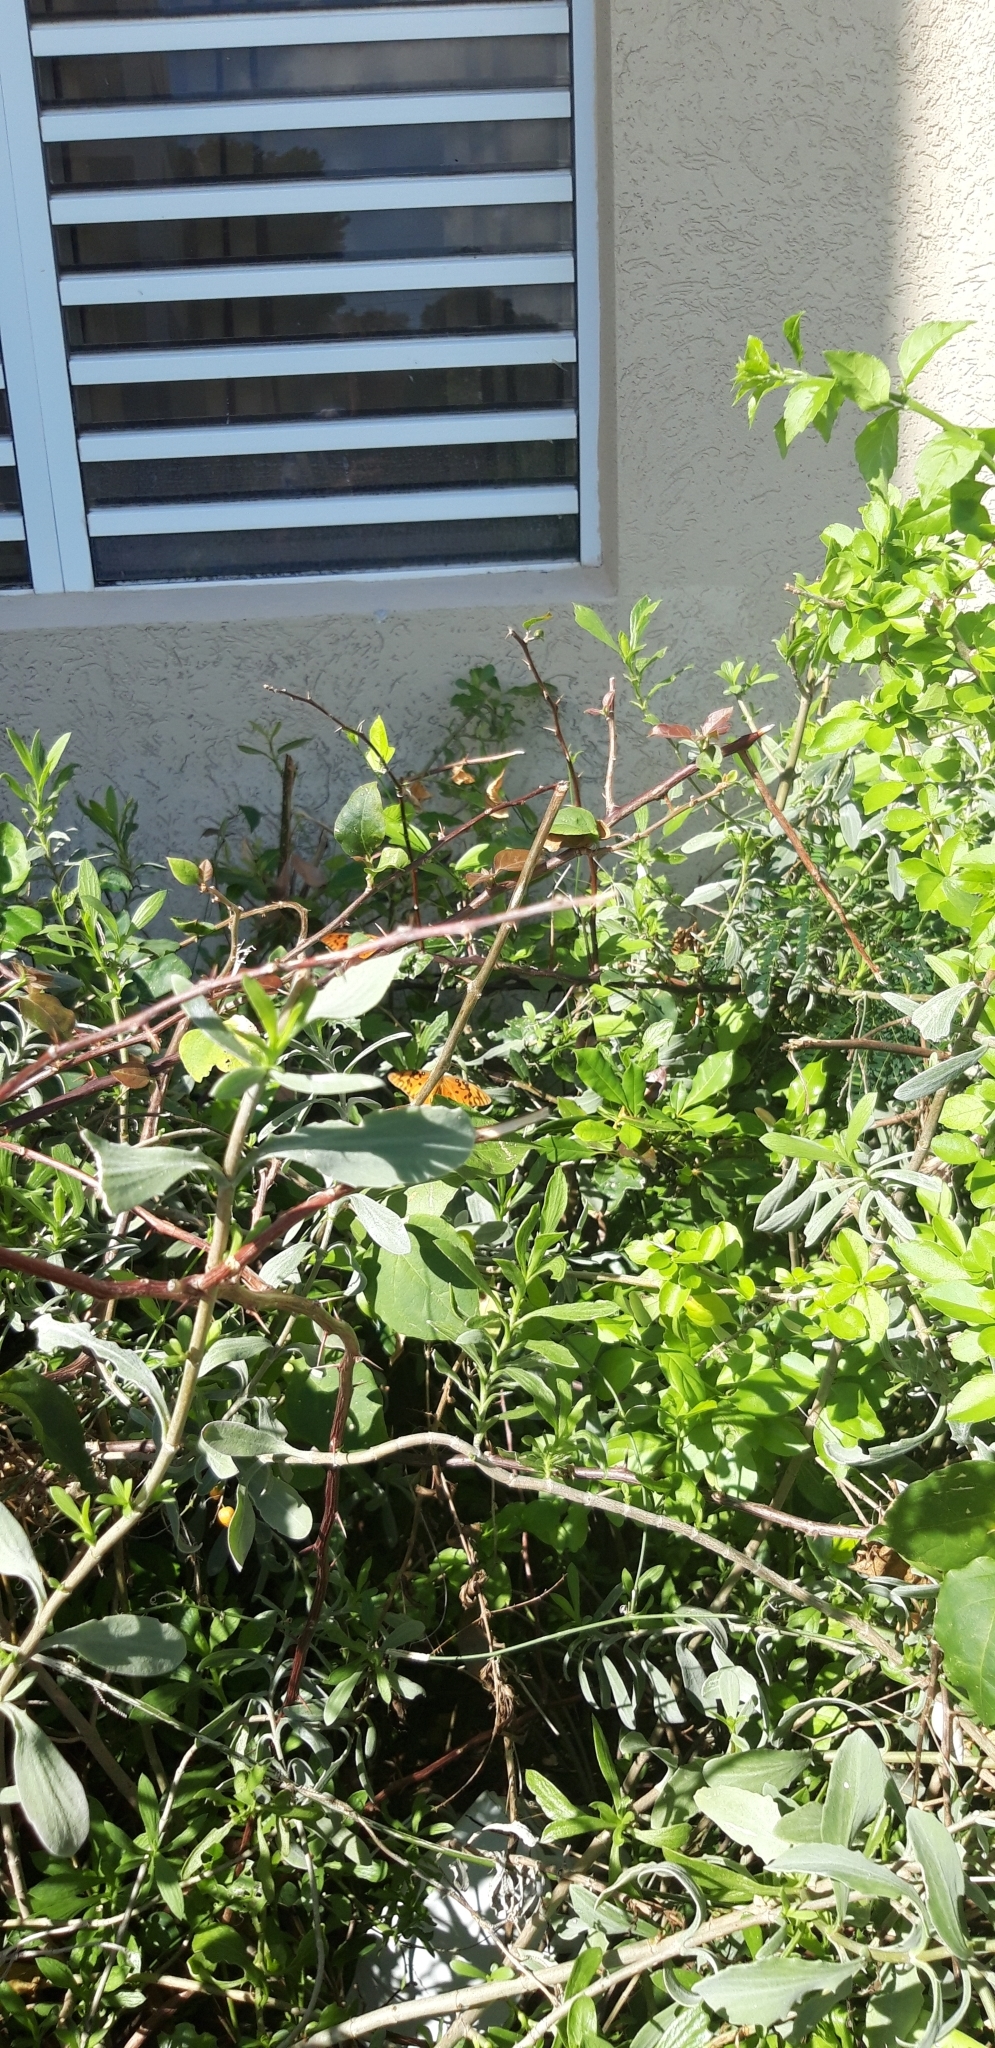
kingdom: Animalia
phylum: Arthropoda
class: Insecta
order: Lepidoptera
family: Nymphalidae
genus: Dione
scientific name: Dione vanillae
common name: Gulf fritillary
